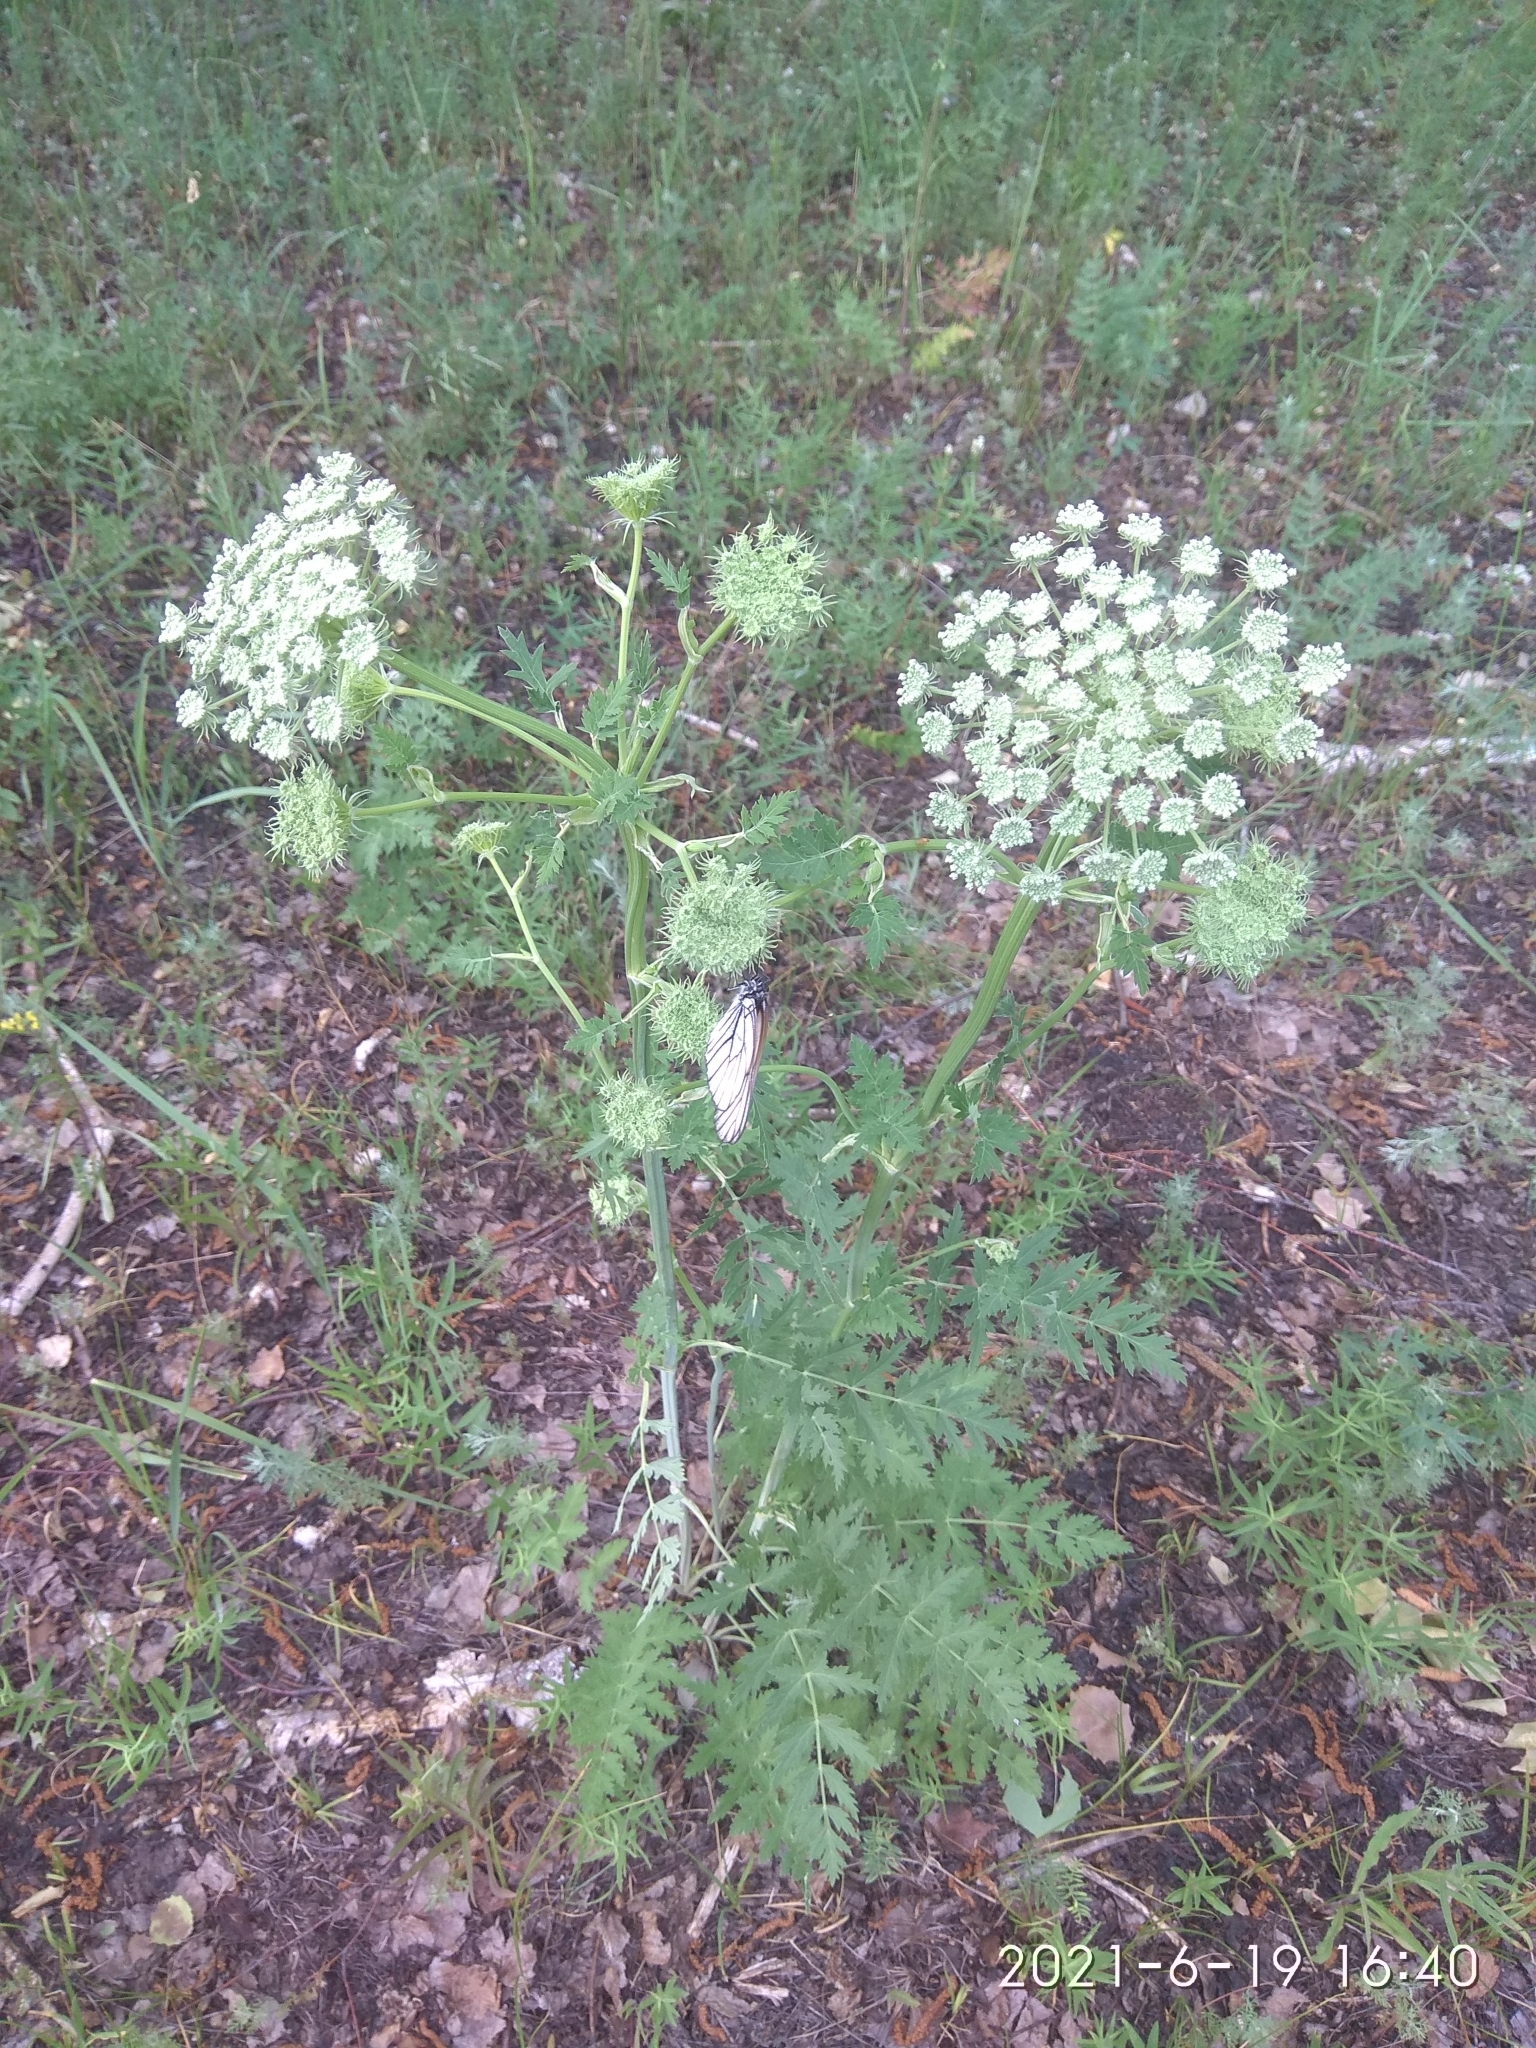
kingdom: Plantae
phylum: Tracheophyta
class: Magnoliopsida
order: Apiales
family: Apiaceae
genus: Seseli
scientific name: Seseli libanotis
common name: Mooncarrot
